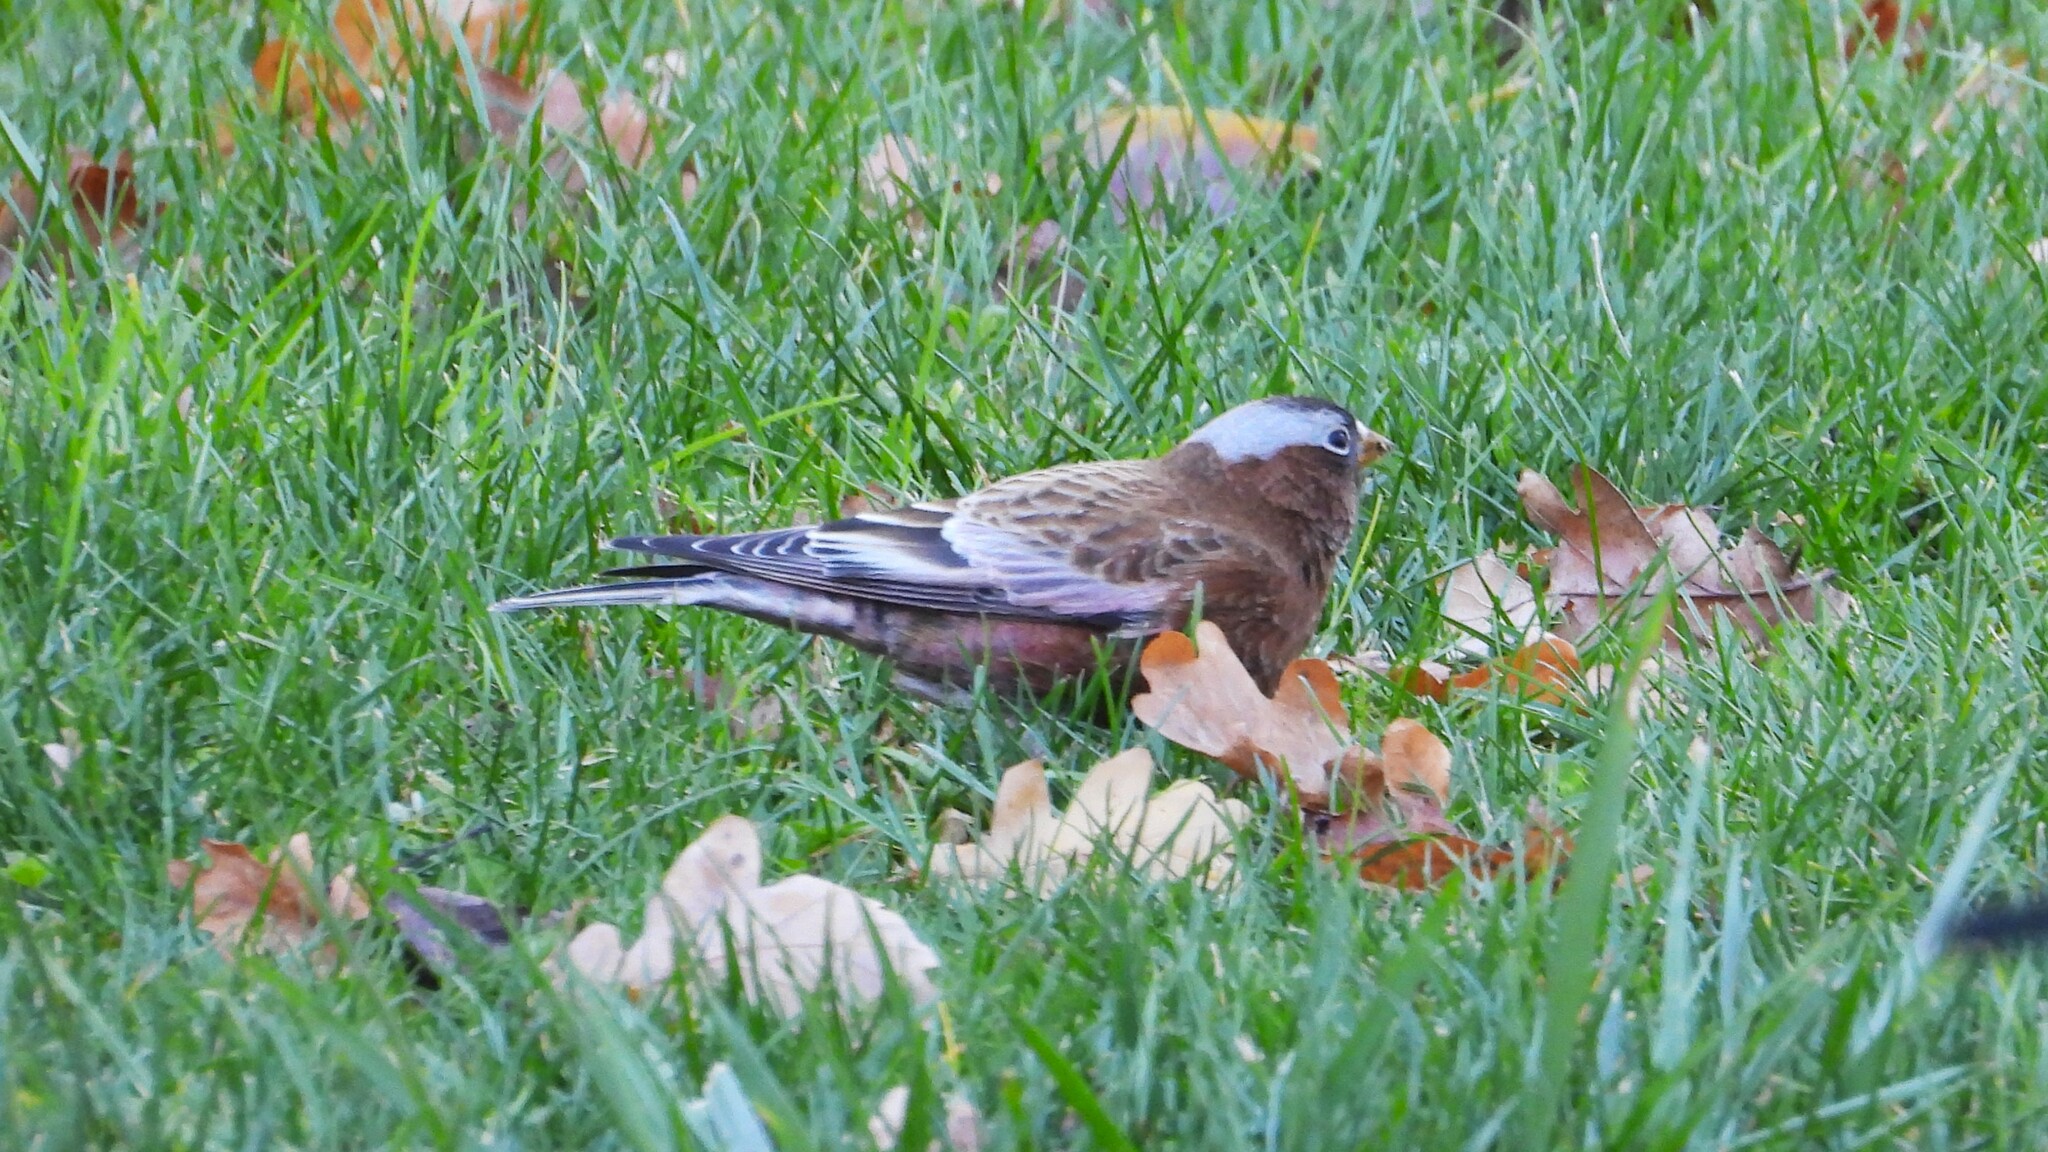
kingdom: Animalia
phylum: Chordata
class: Aves
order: Passeriformes
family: Fringillidae
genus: Leucosticte
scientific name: Leucosticte tephrocotis
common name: Gray-crowned rosy-finch
